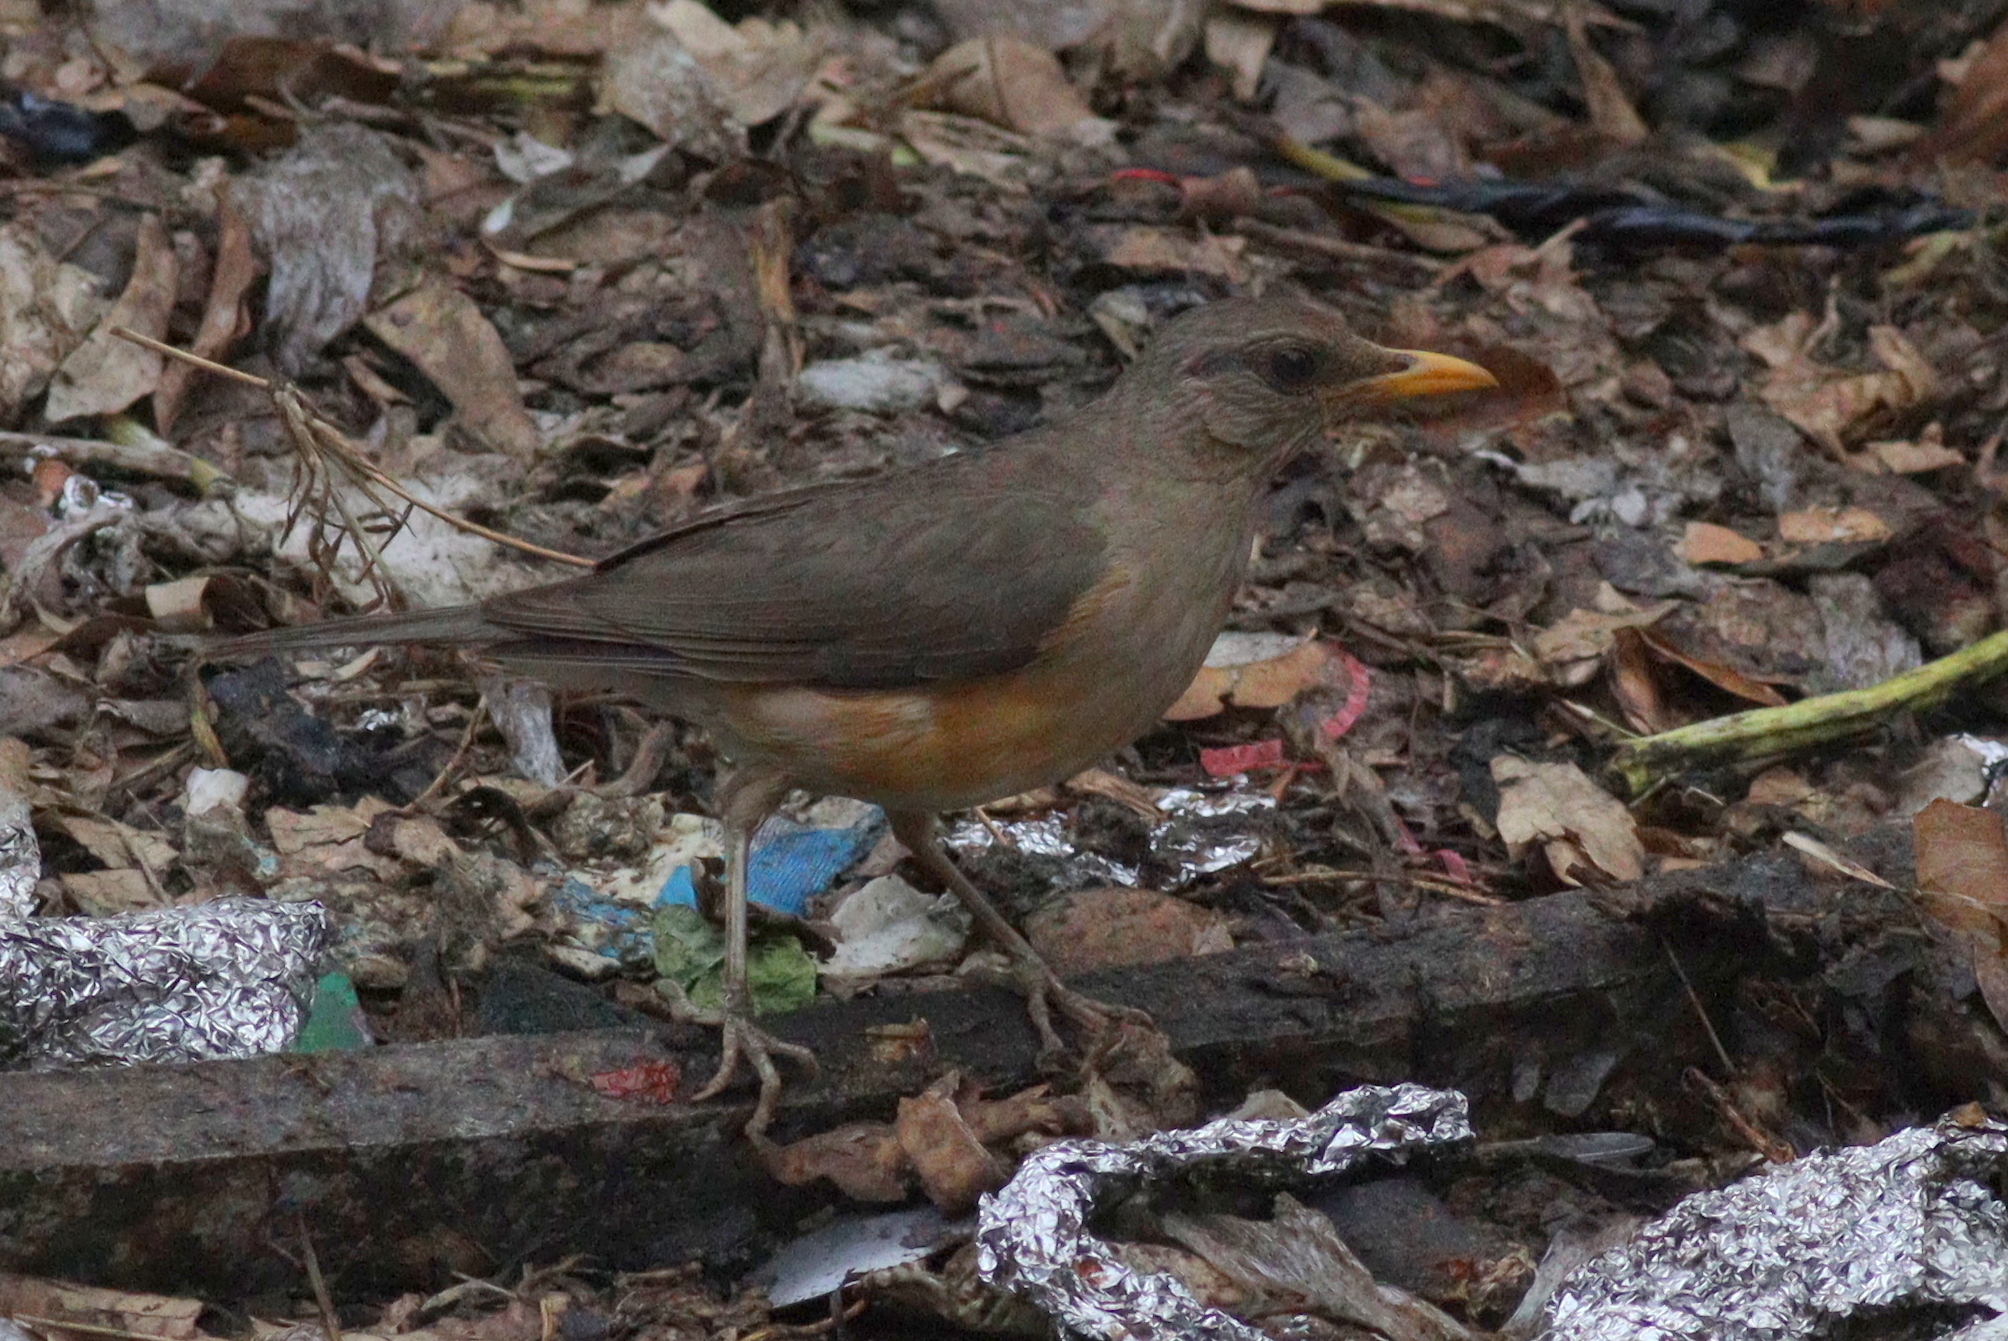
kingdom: Animalia
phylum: Chordata
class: Aves
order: Passeriformes
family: Turdidae
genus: Turdus
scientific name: Turdus pelios
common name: African thrush
